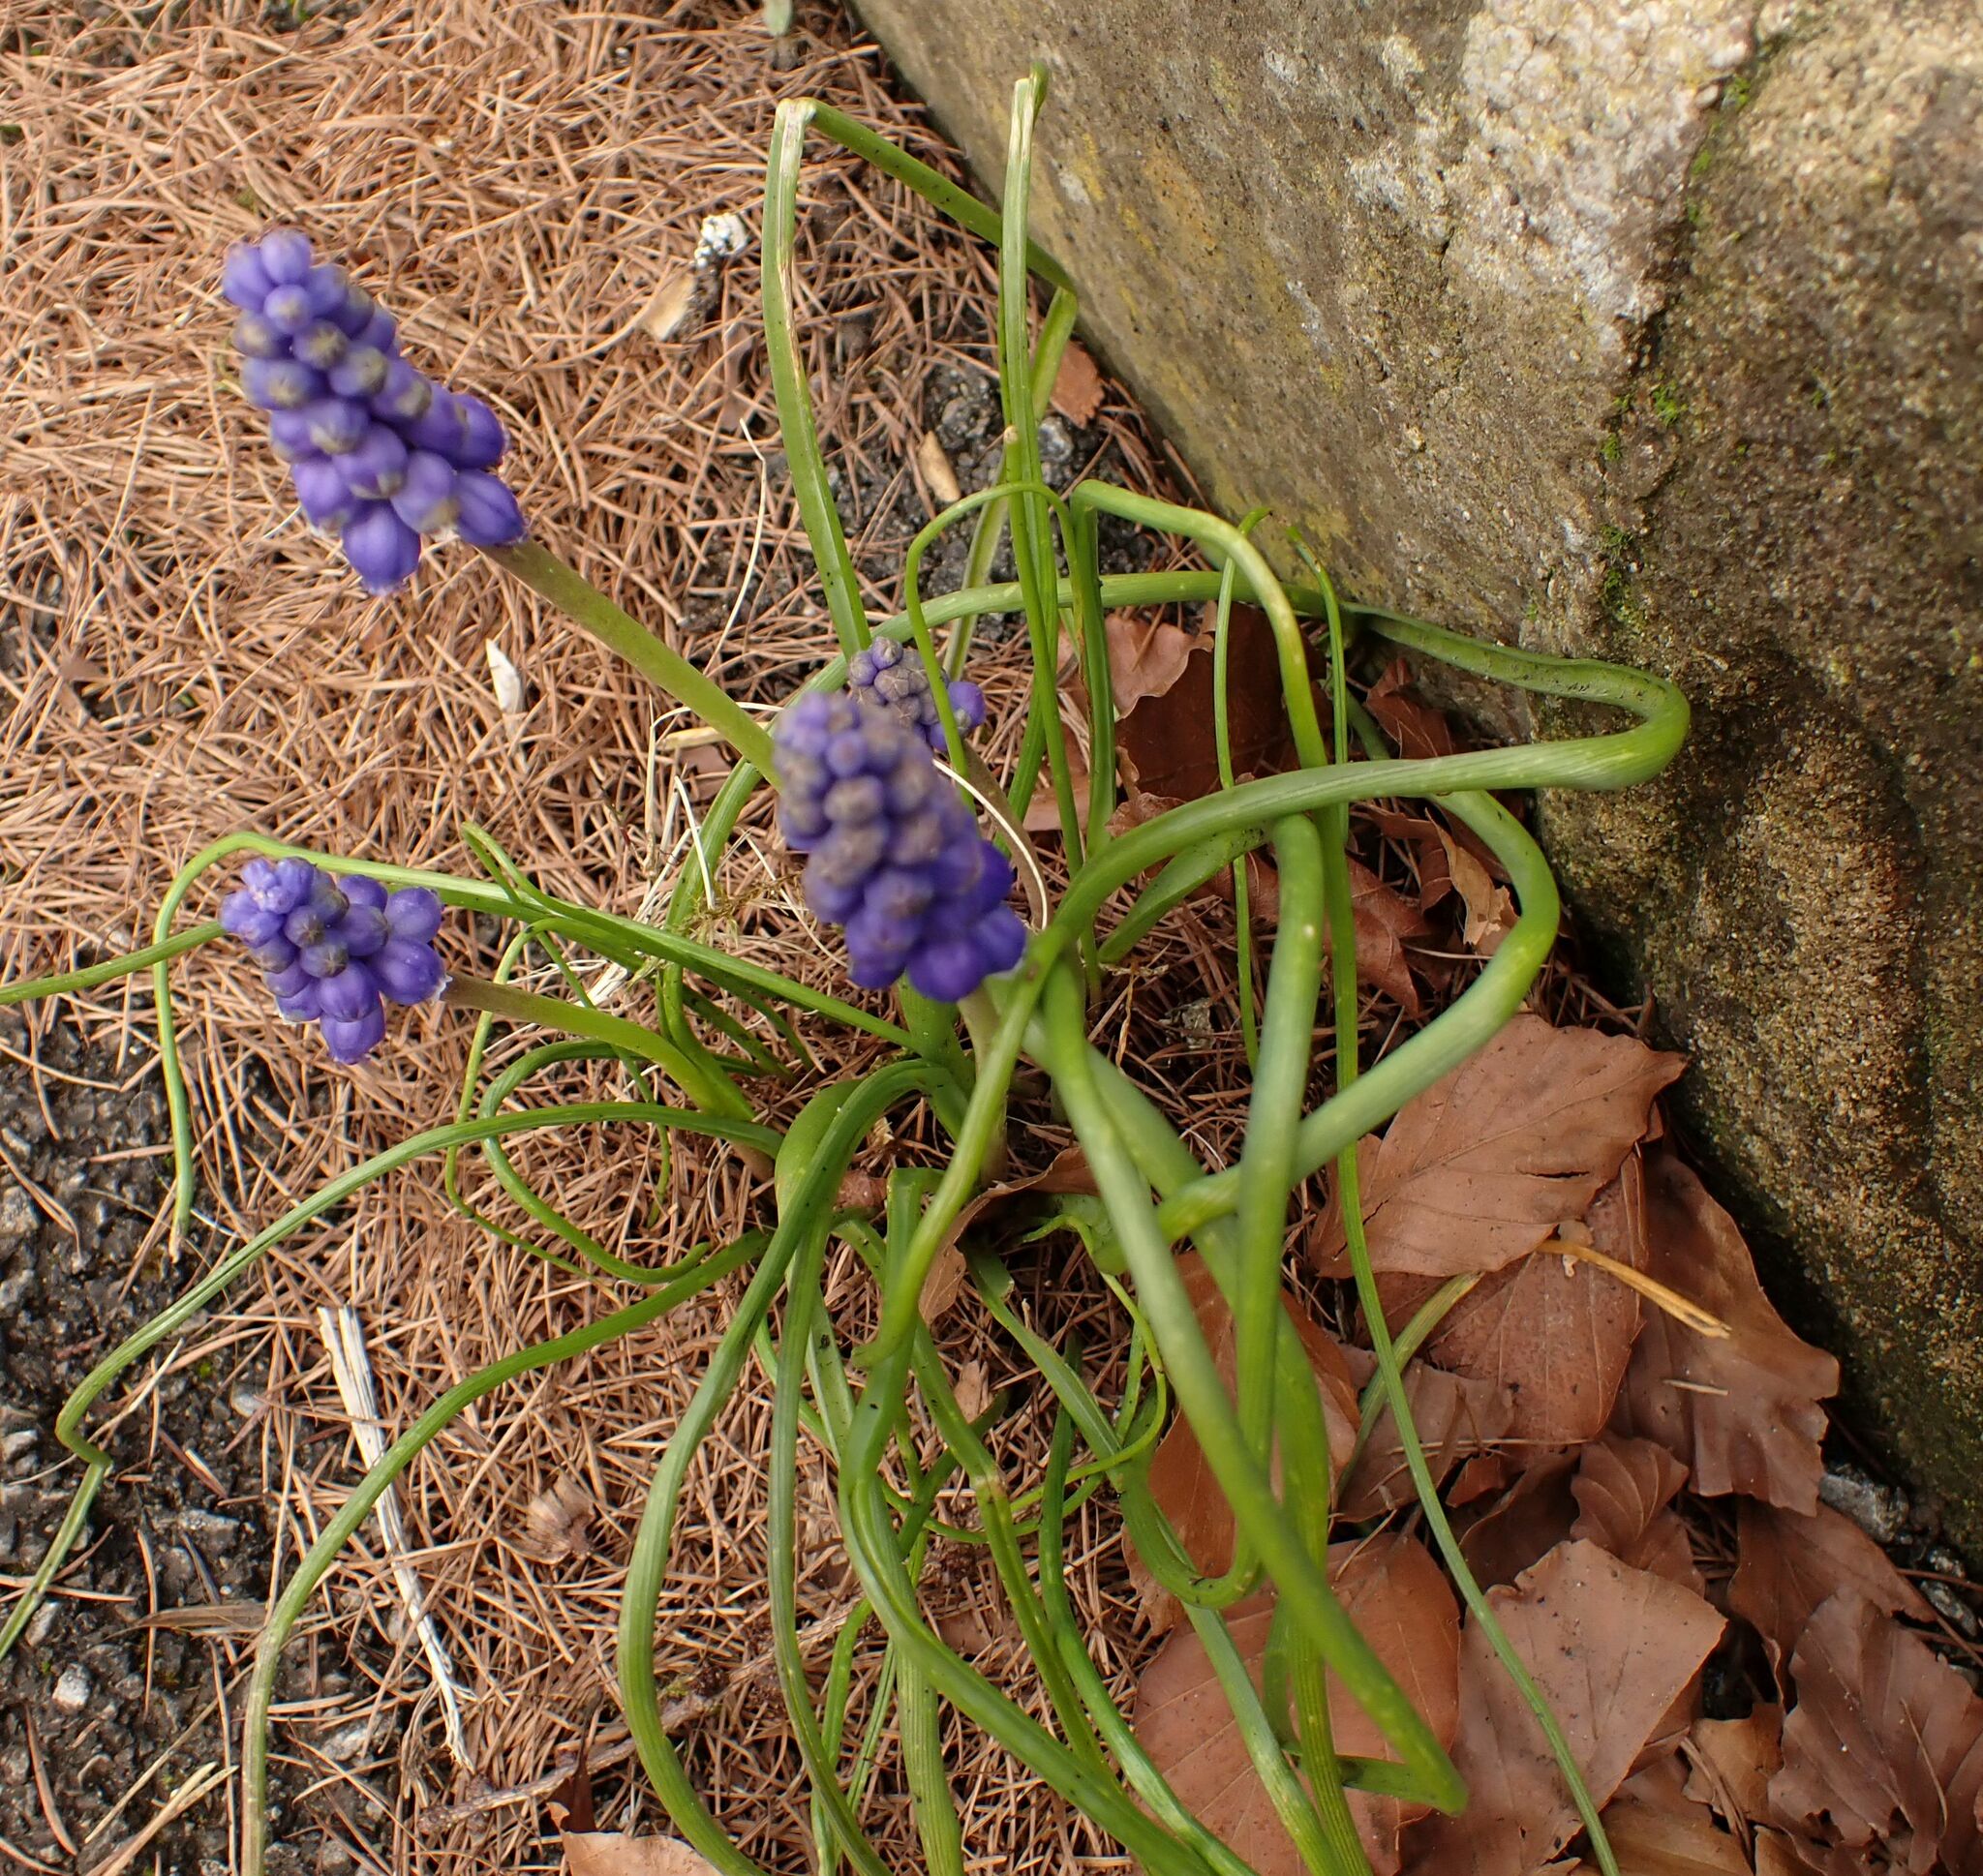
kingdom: Plantae
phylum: Tracheophyta
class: Liliopsida
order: Asparagales
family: Asparagaceae
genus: Muscari
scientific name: Muscari armeniacum
